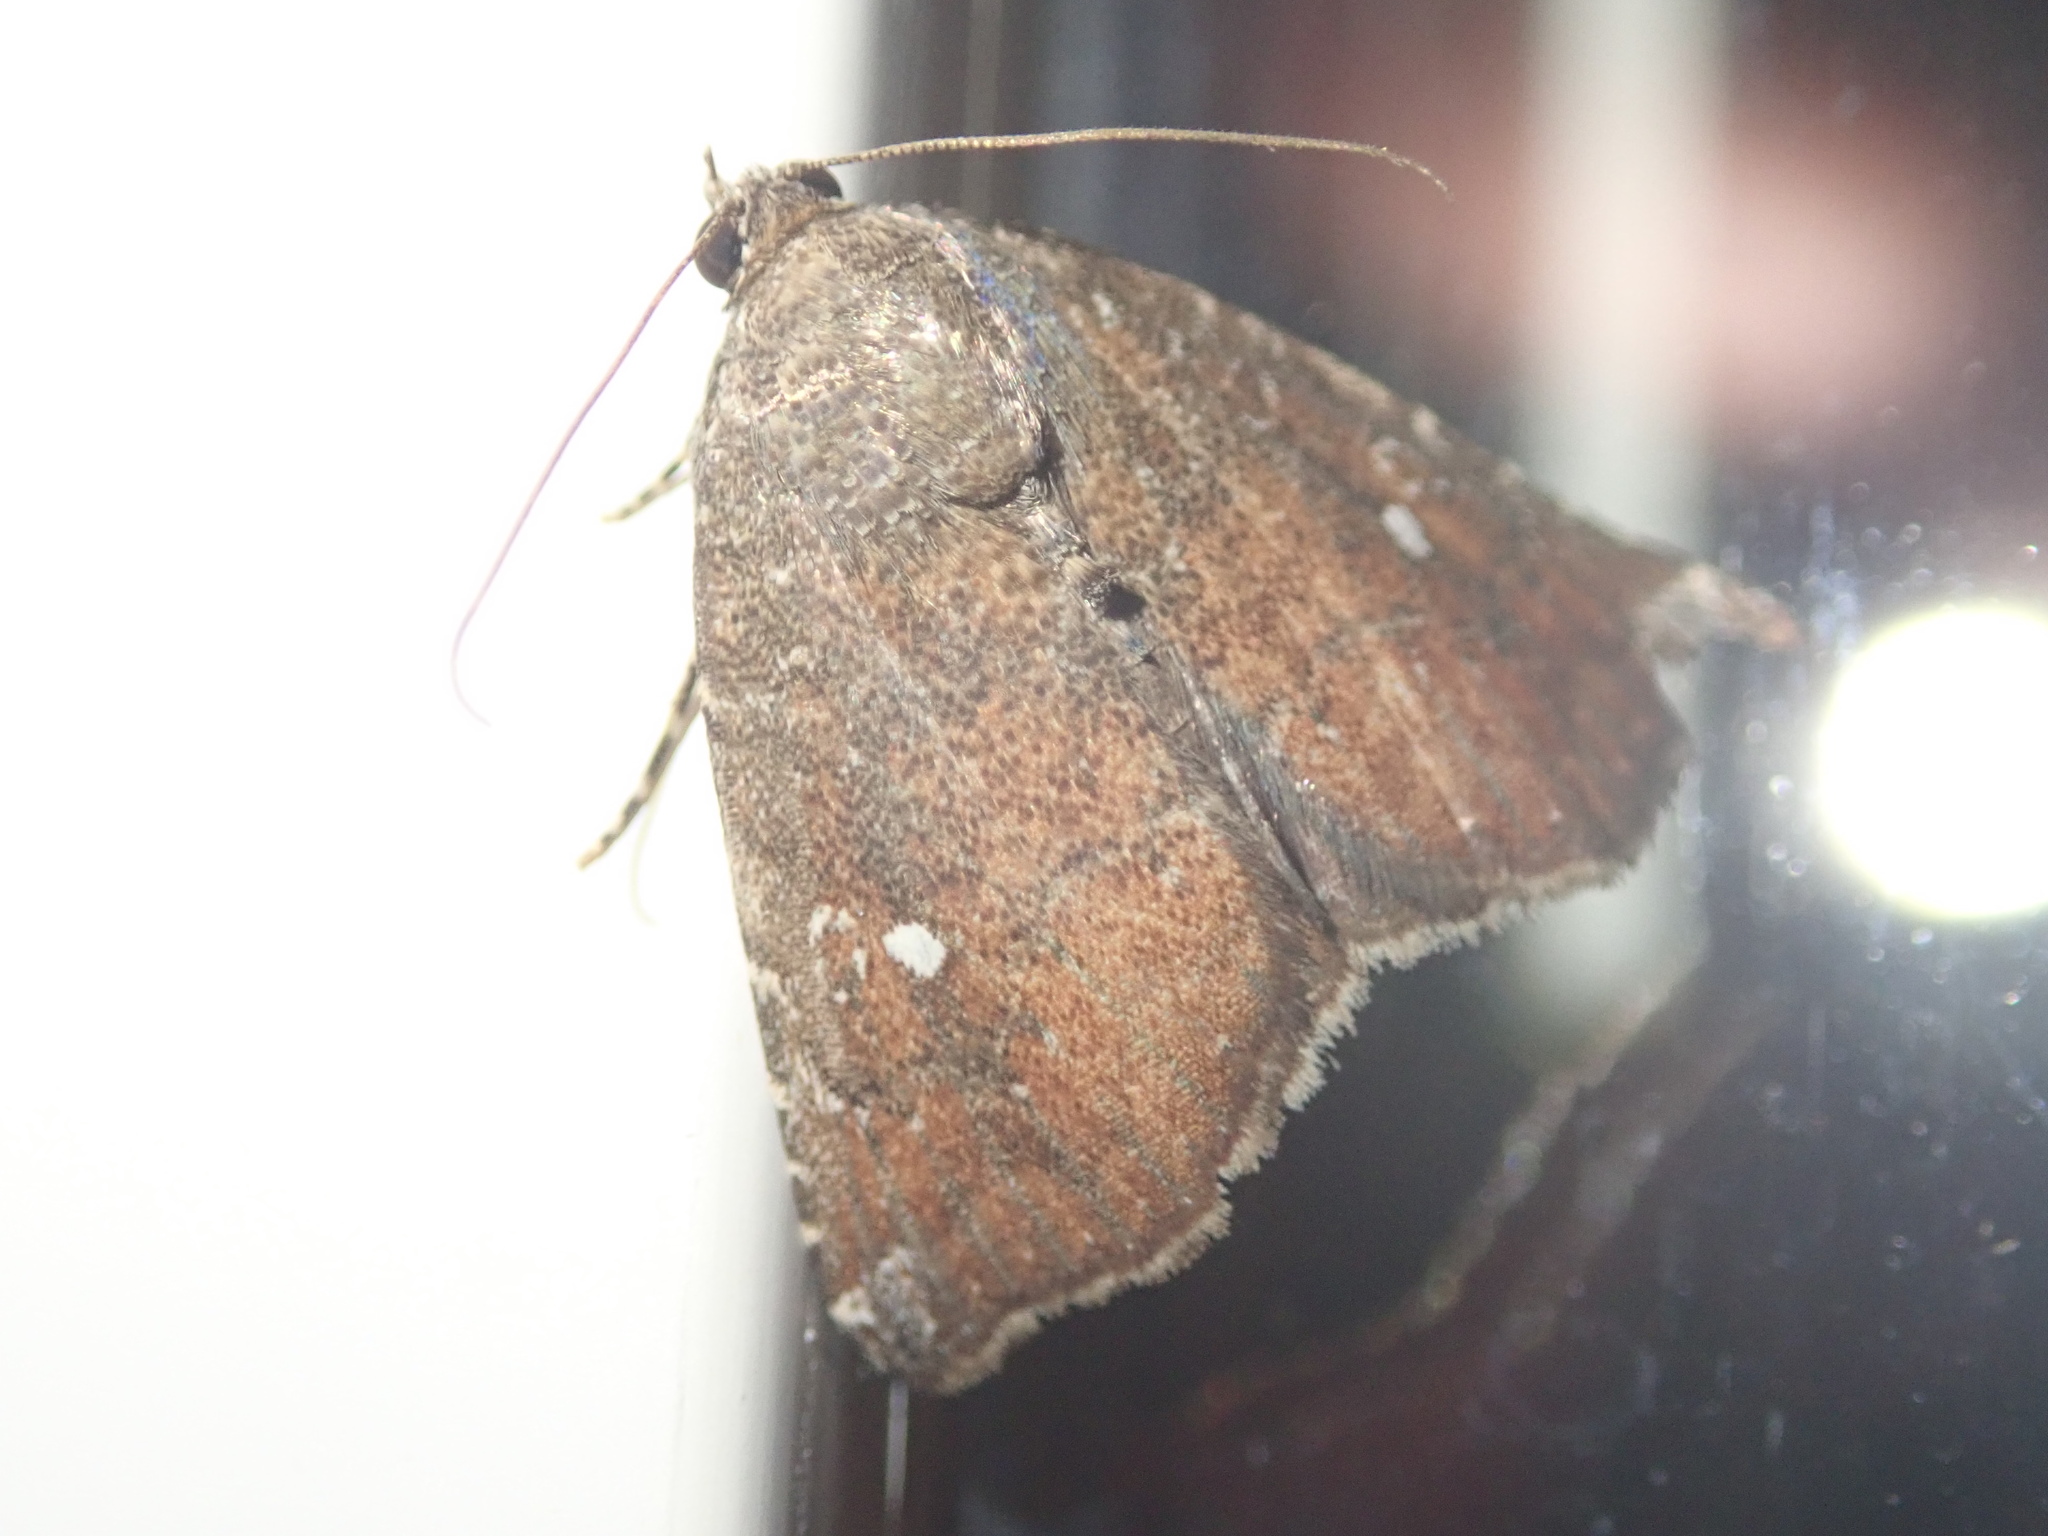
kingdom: Animalia
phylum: Arthropoda
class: Insecta
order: Lepidoptera
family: Noctuidae
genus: Amyna
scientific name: Amyna stricta
